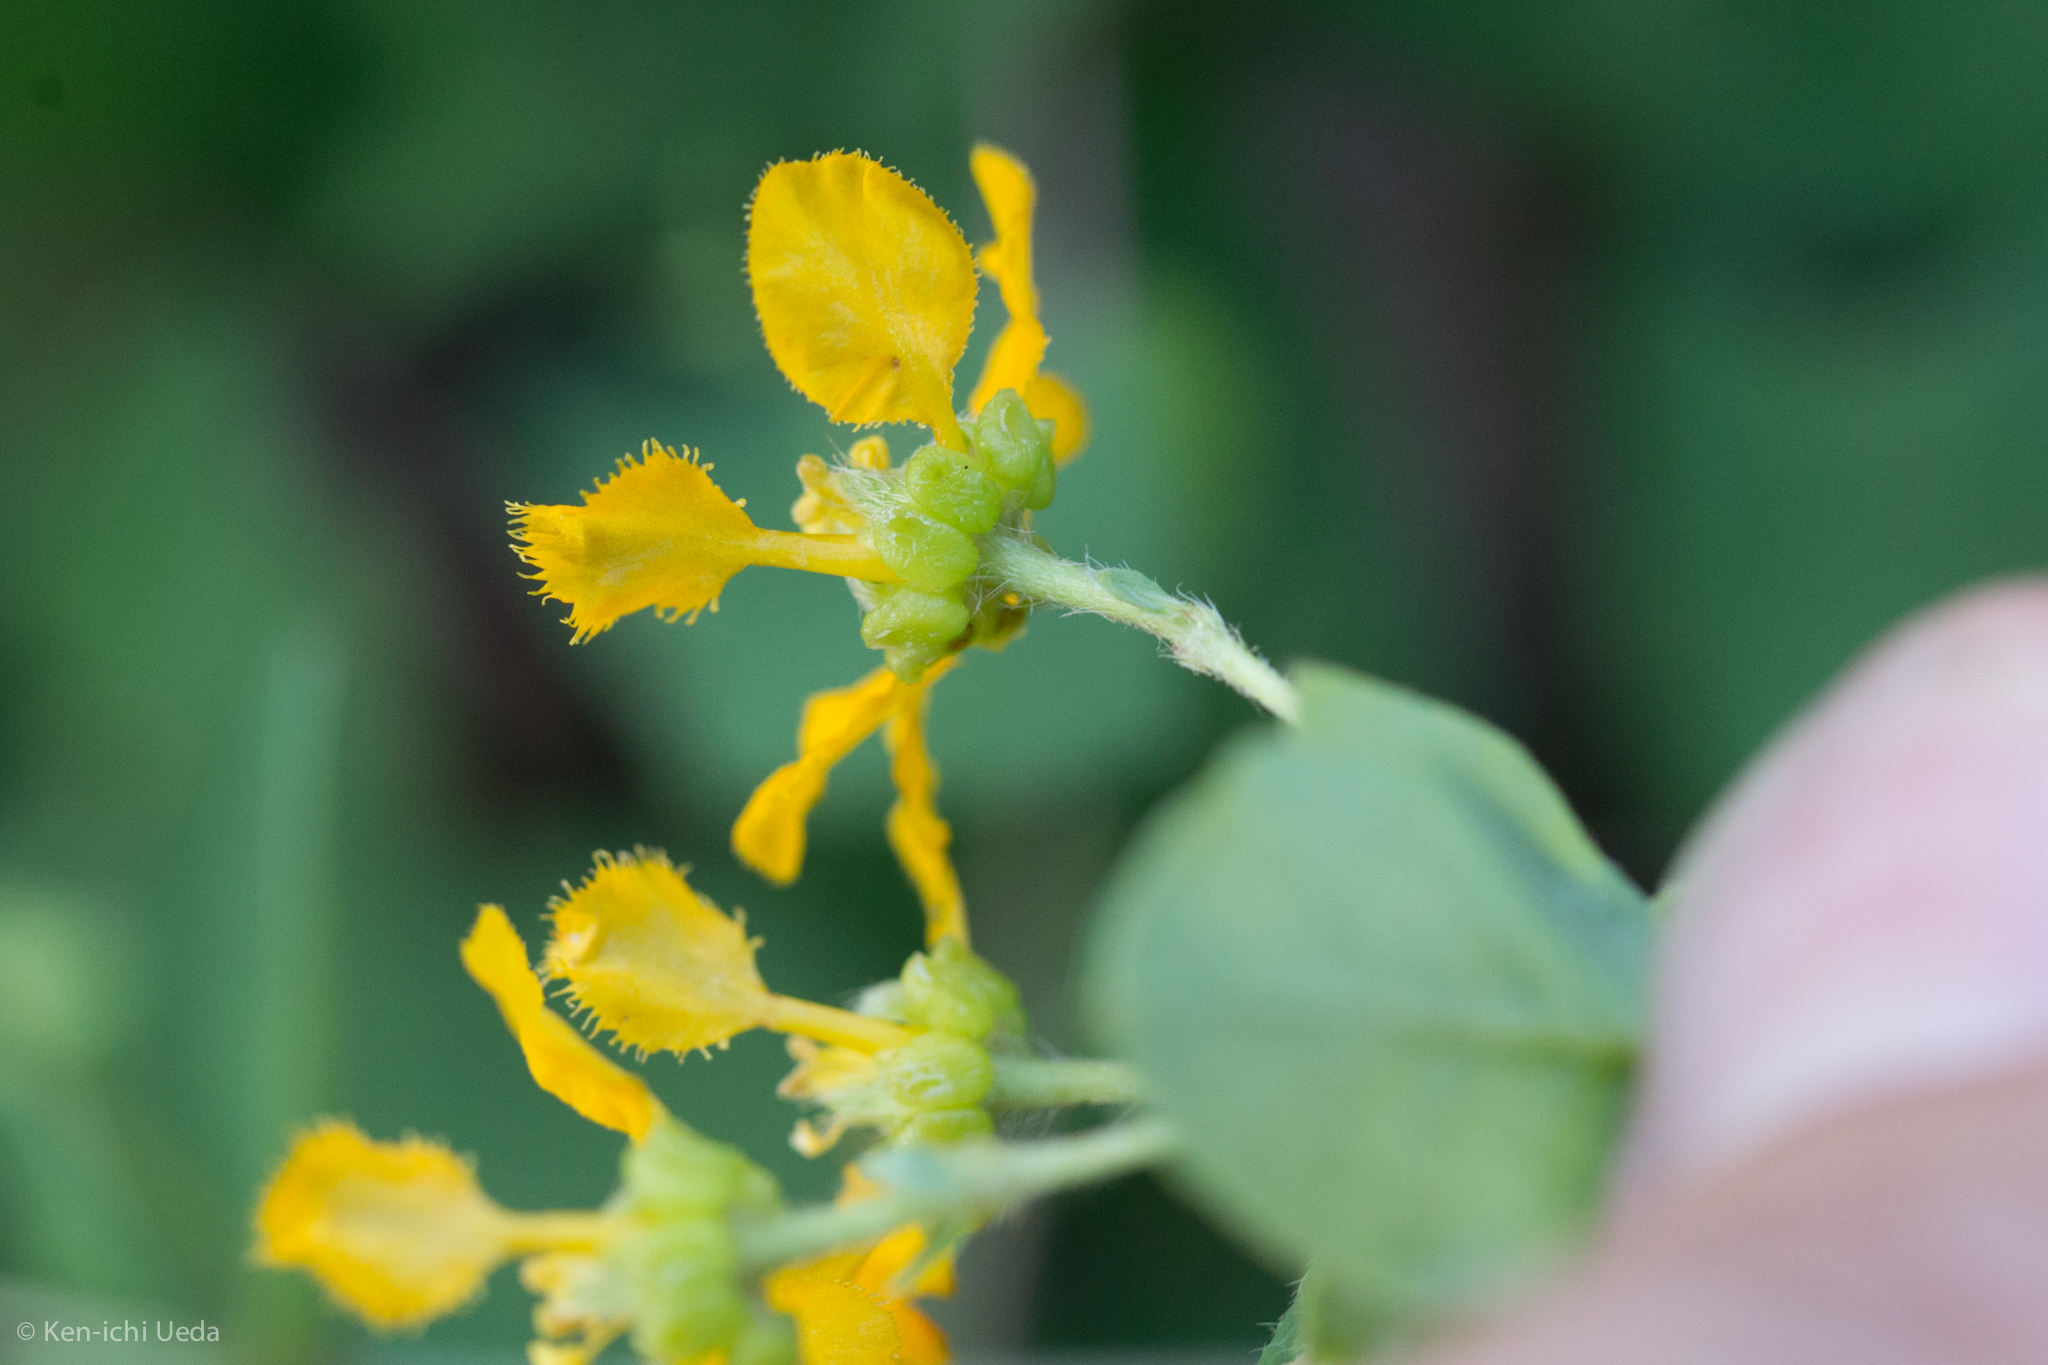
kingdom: Plantae
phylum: Tracheophyta
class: Magnoliopsida
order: Malpighiales
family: Malpighiaceae
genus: Aspicarpa
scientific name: Aspicarpa hirtella
